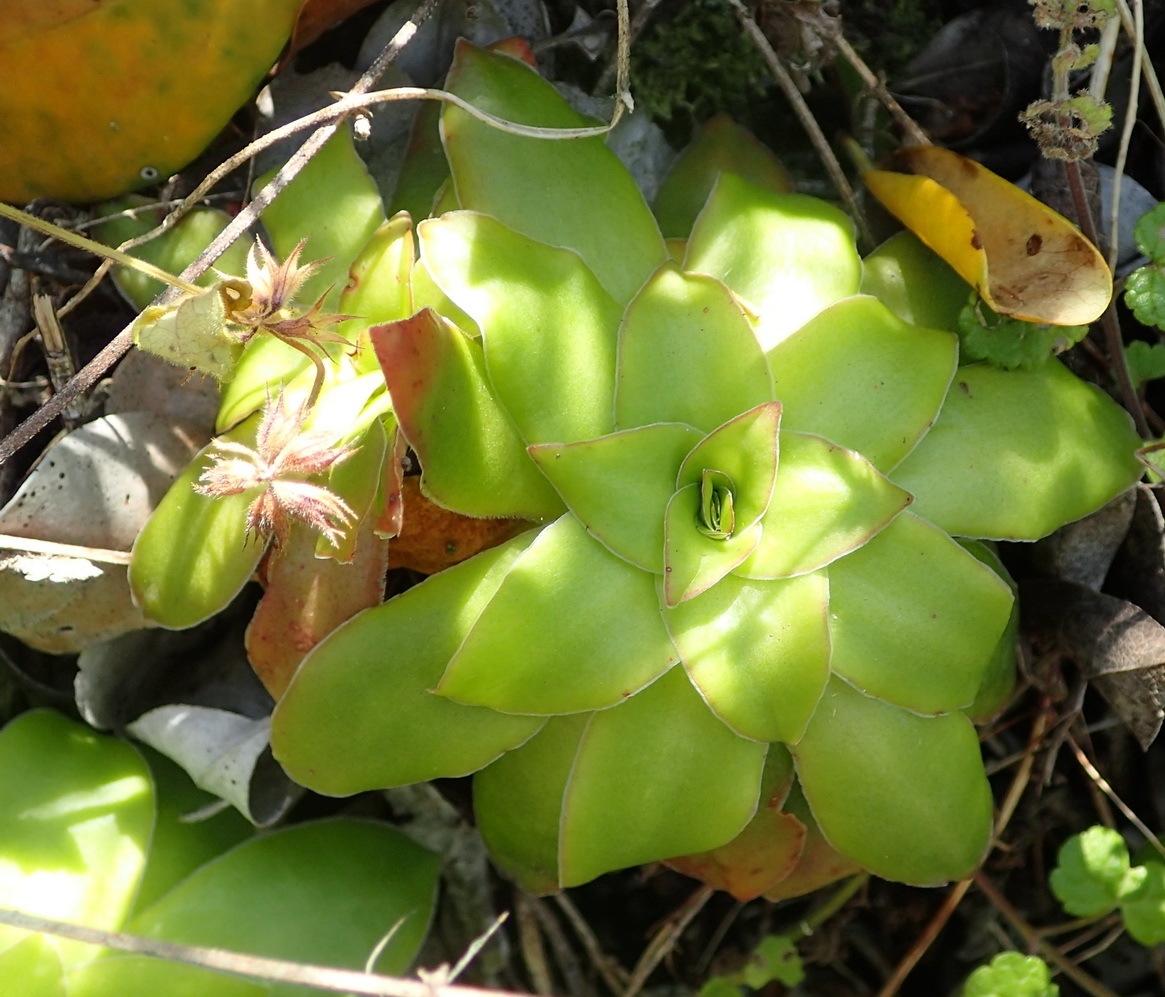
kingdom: Plantae
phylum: Tracheophyta
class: Magnoliopsida
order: Saxifragales
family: Crassulaceae
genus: Crassula
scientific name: Crassula orbicularis
